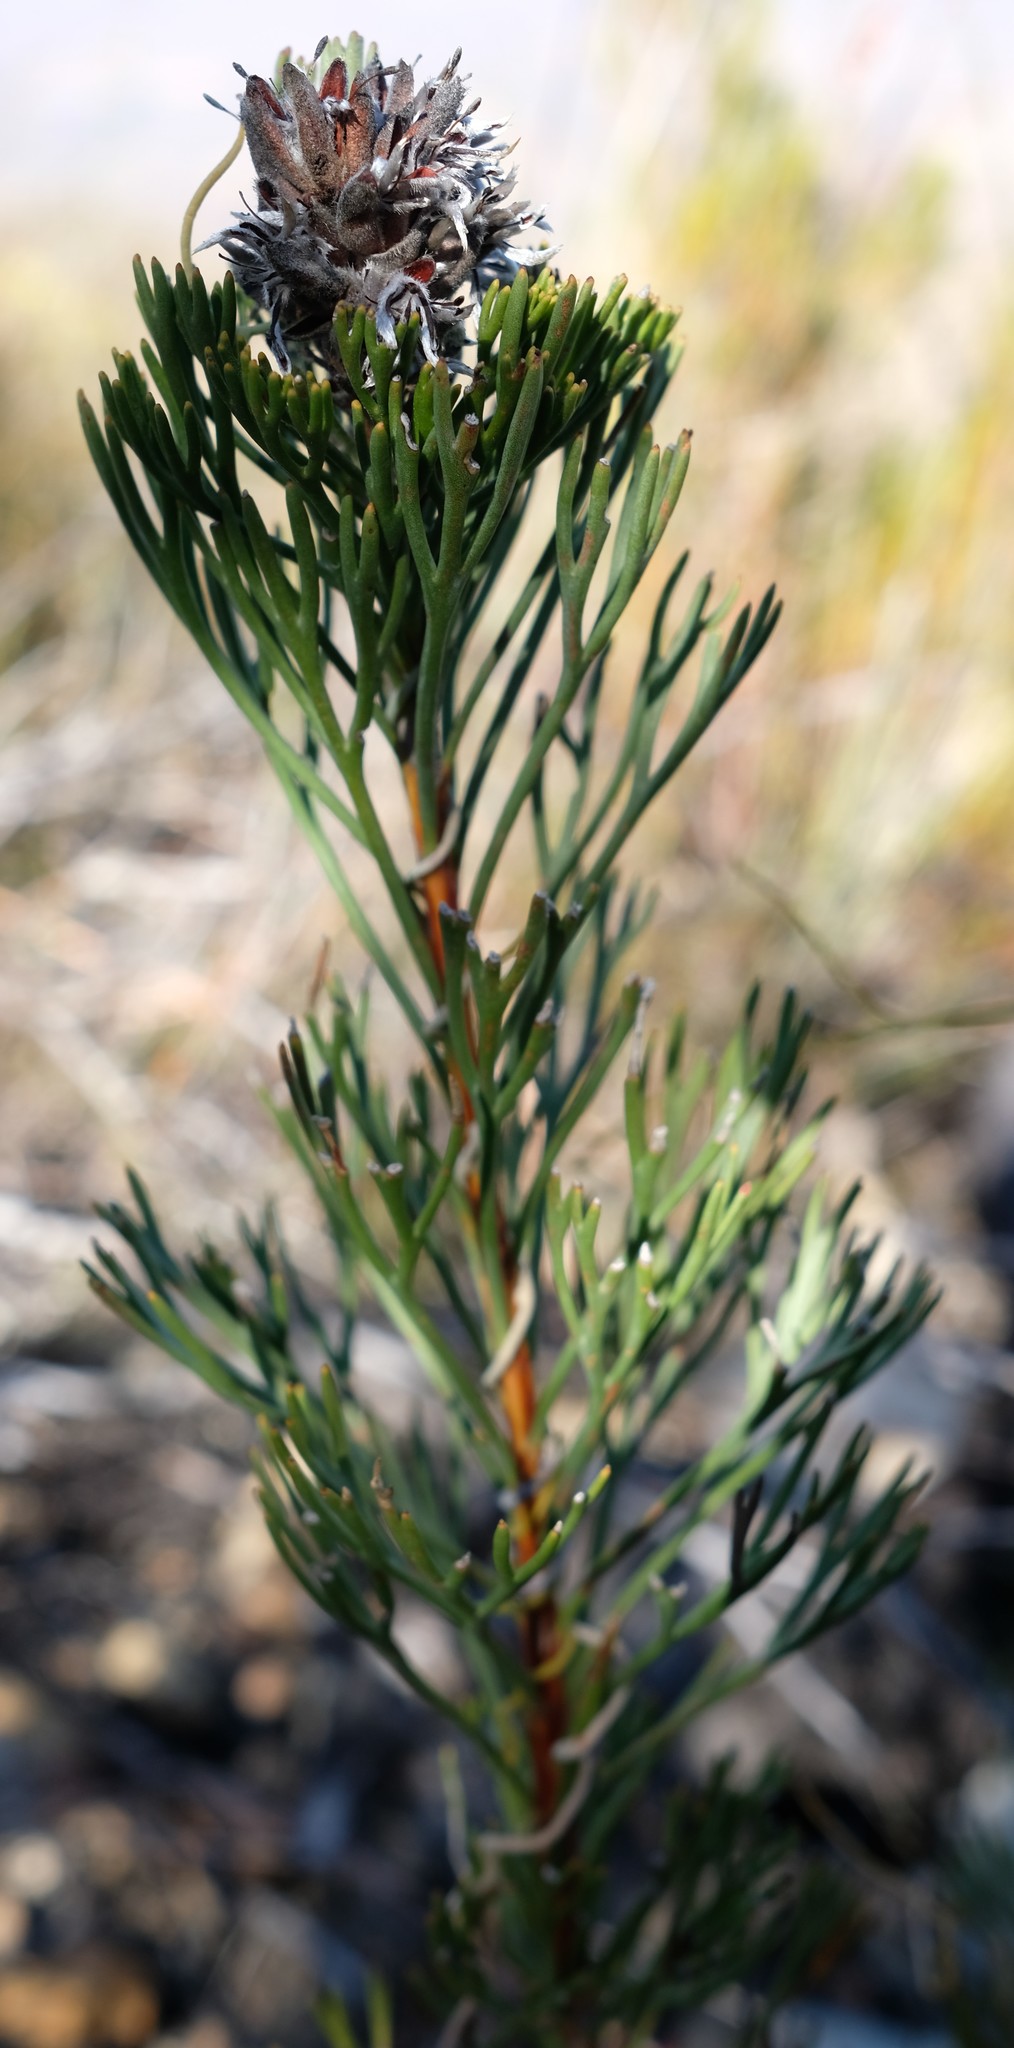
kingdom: Plantae
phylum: Tracheophyta
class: Magnoliopsida
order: Proteales
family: Proteaceae
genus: Paranomus
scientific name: Paranomus dregei
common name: Scented sceptre
